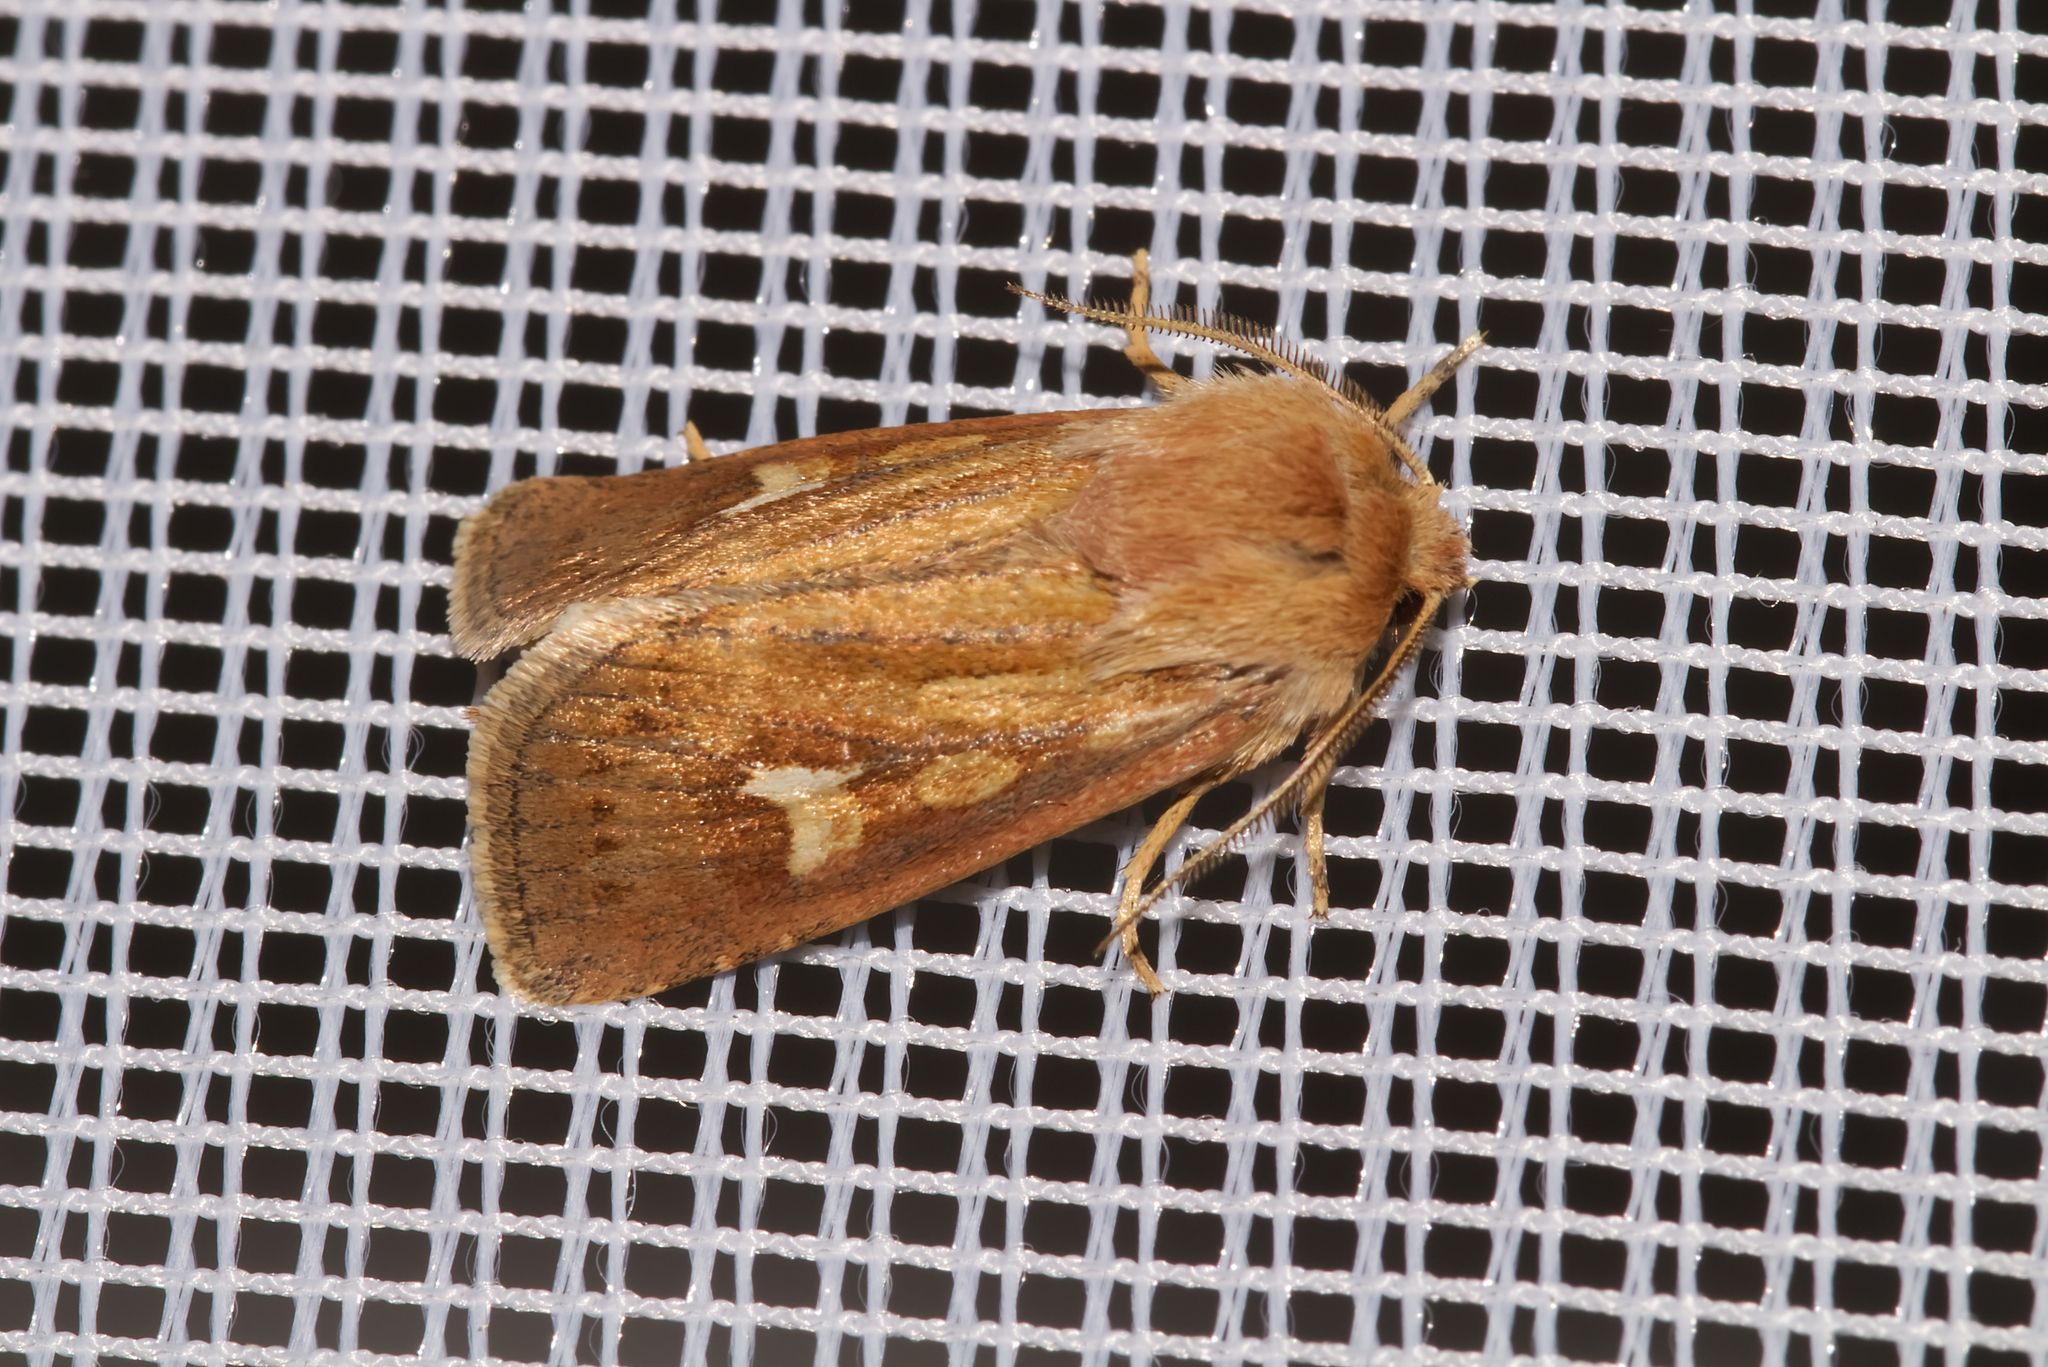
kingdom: Animalia
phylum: Arthropoda
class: Insecta
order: Lepidoptera
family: Noctuidae
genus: Cerapteryx
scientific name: Cerapteryx graminis
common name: Antler moth
